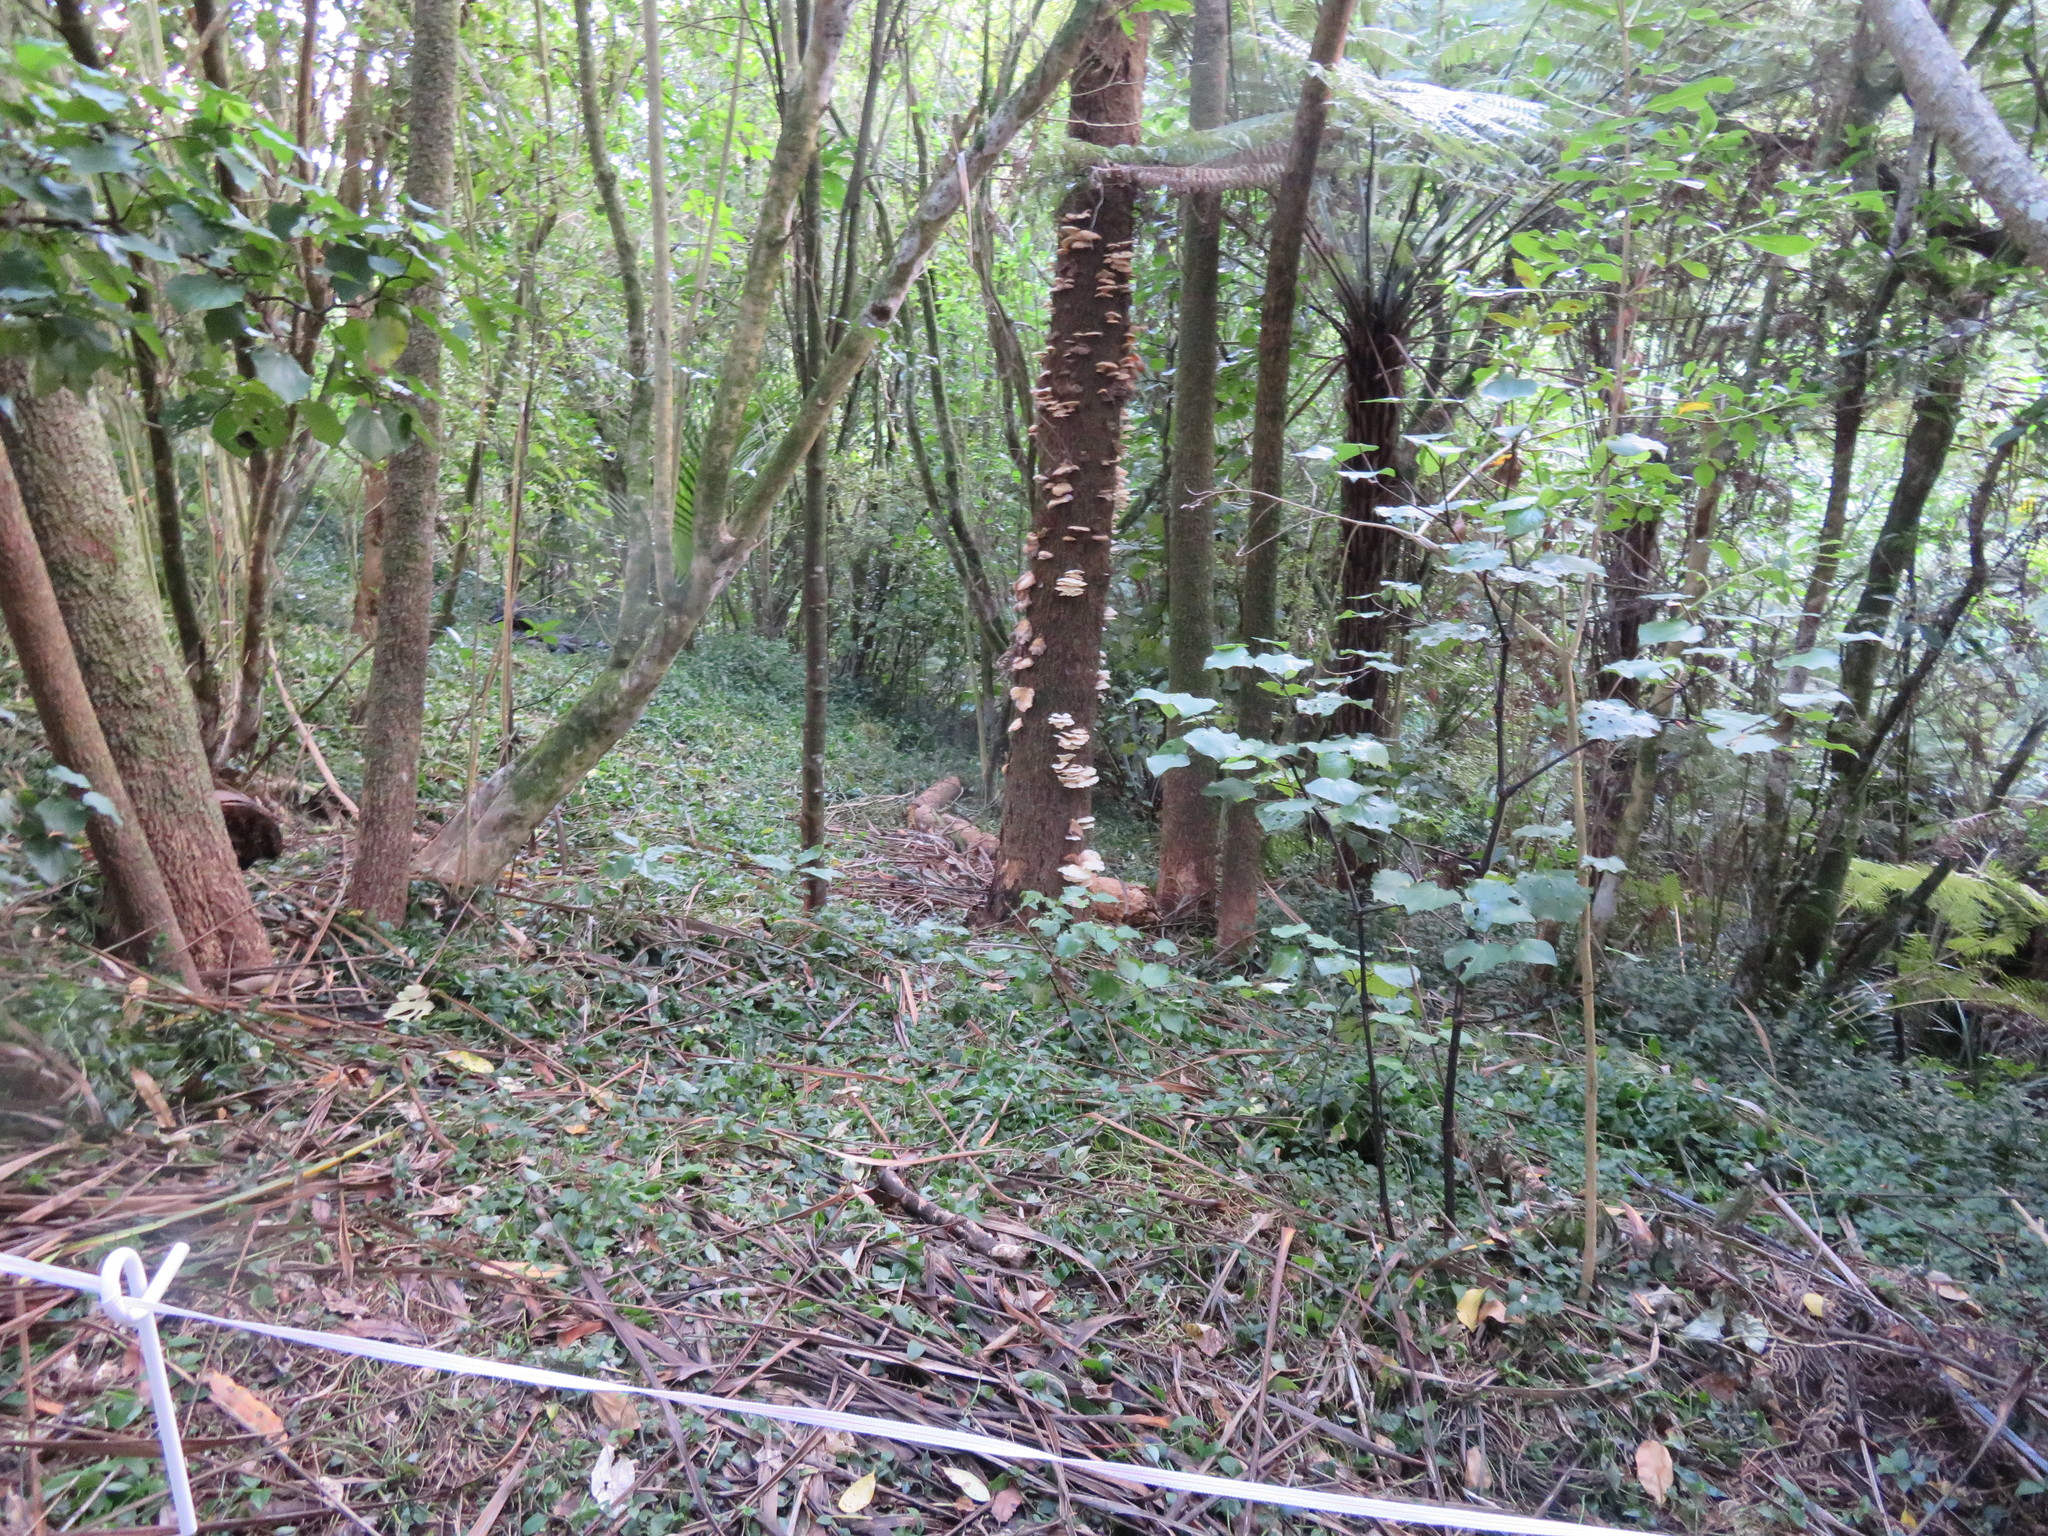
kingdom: Plantae
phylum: Tracheophyta
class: Magnoliopsida
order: Piperales
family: Piperaceae
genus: Macropiper
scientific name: Macropiper excelsum
